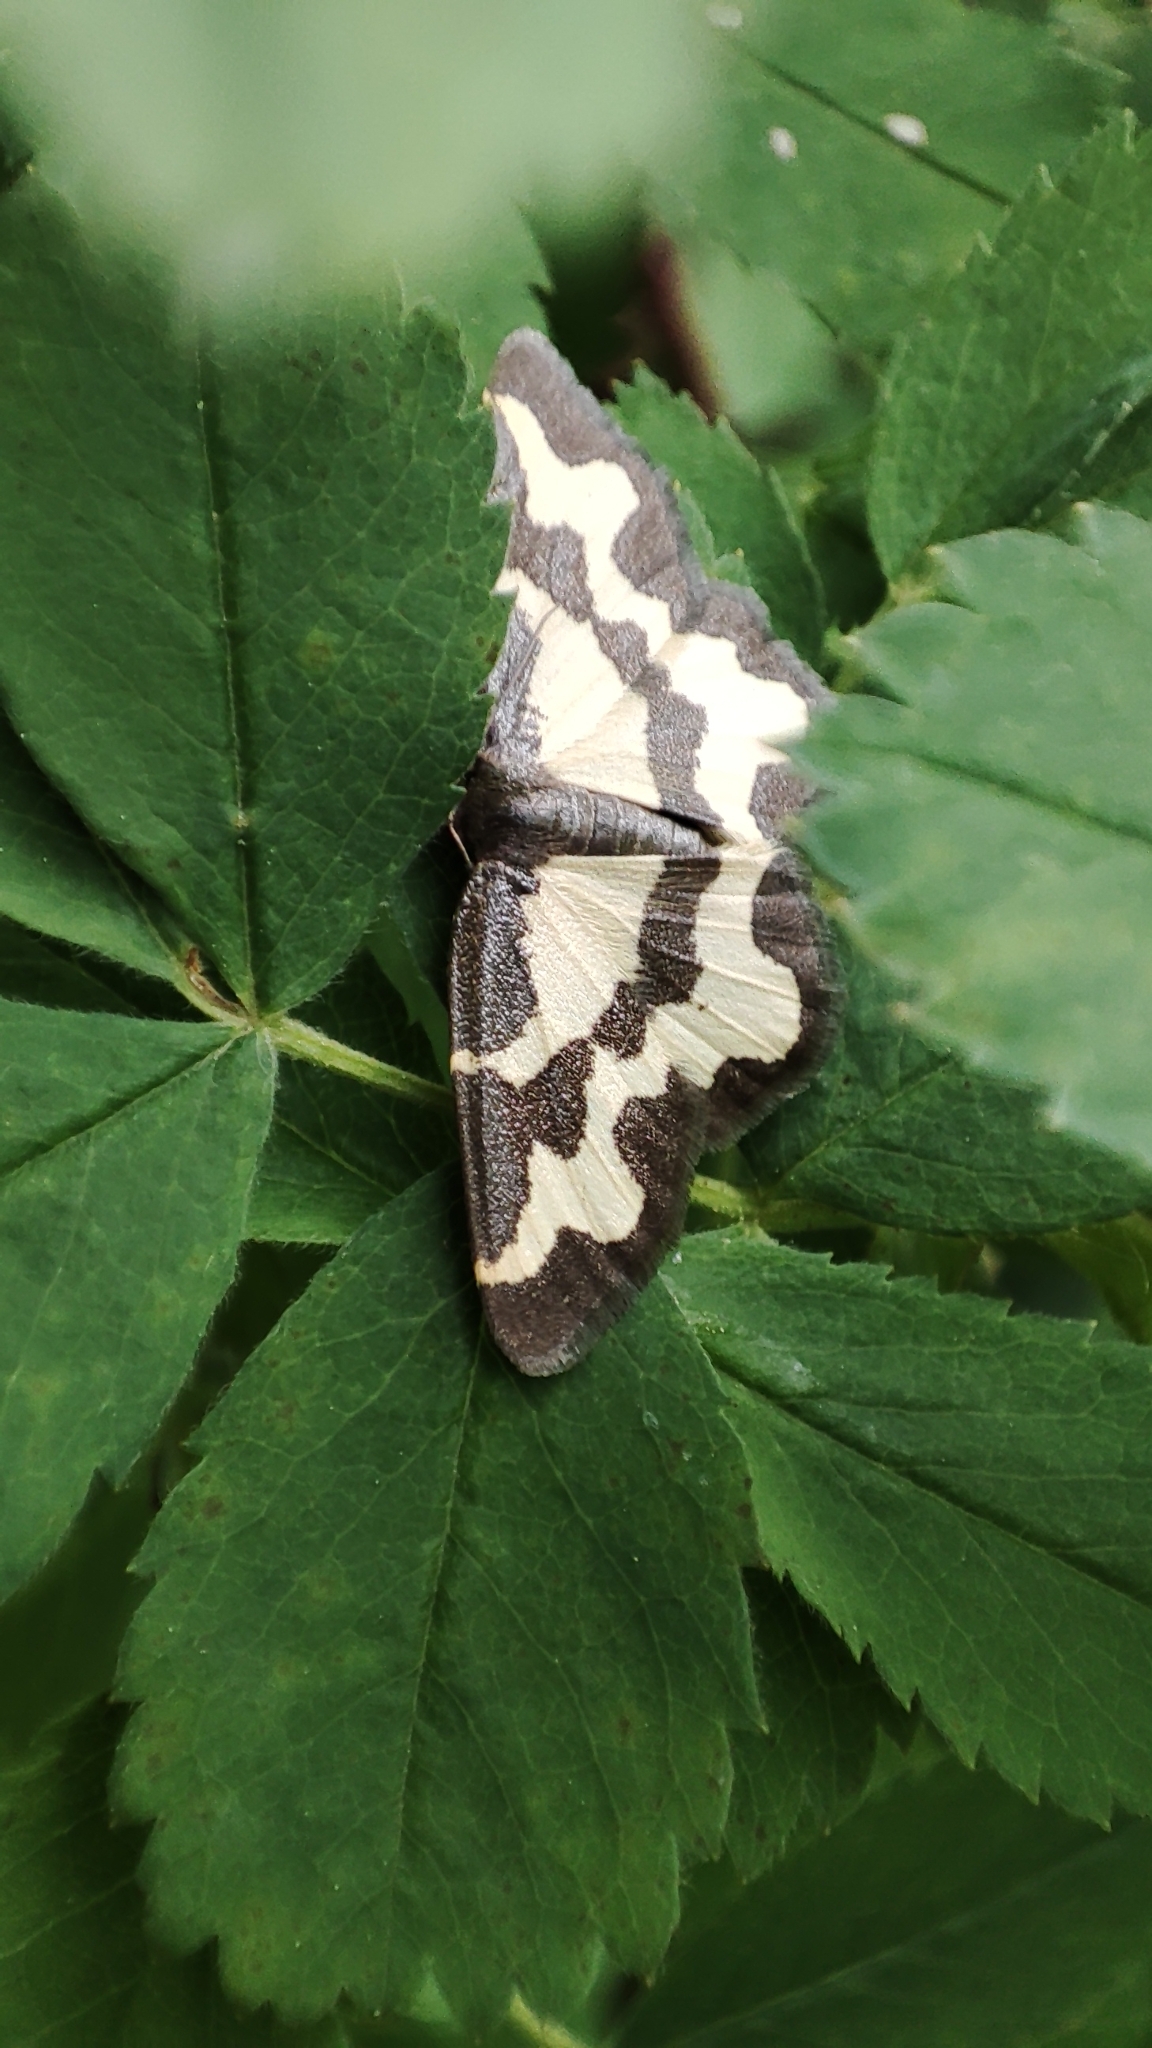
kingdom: Animalia
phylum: Arthropoda
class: Insecta
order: Lepidoptera
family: Geometridae
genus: Lomaspilis
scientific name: Lomaspilis marginata
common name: Clouded border
